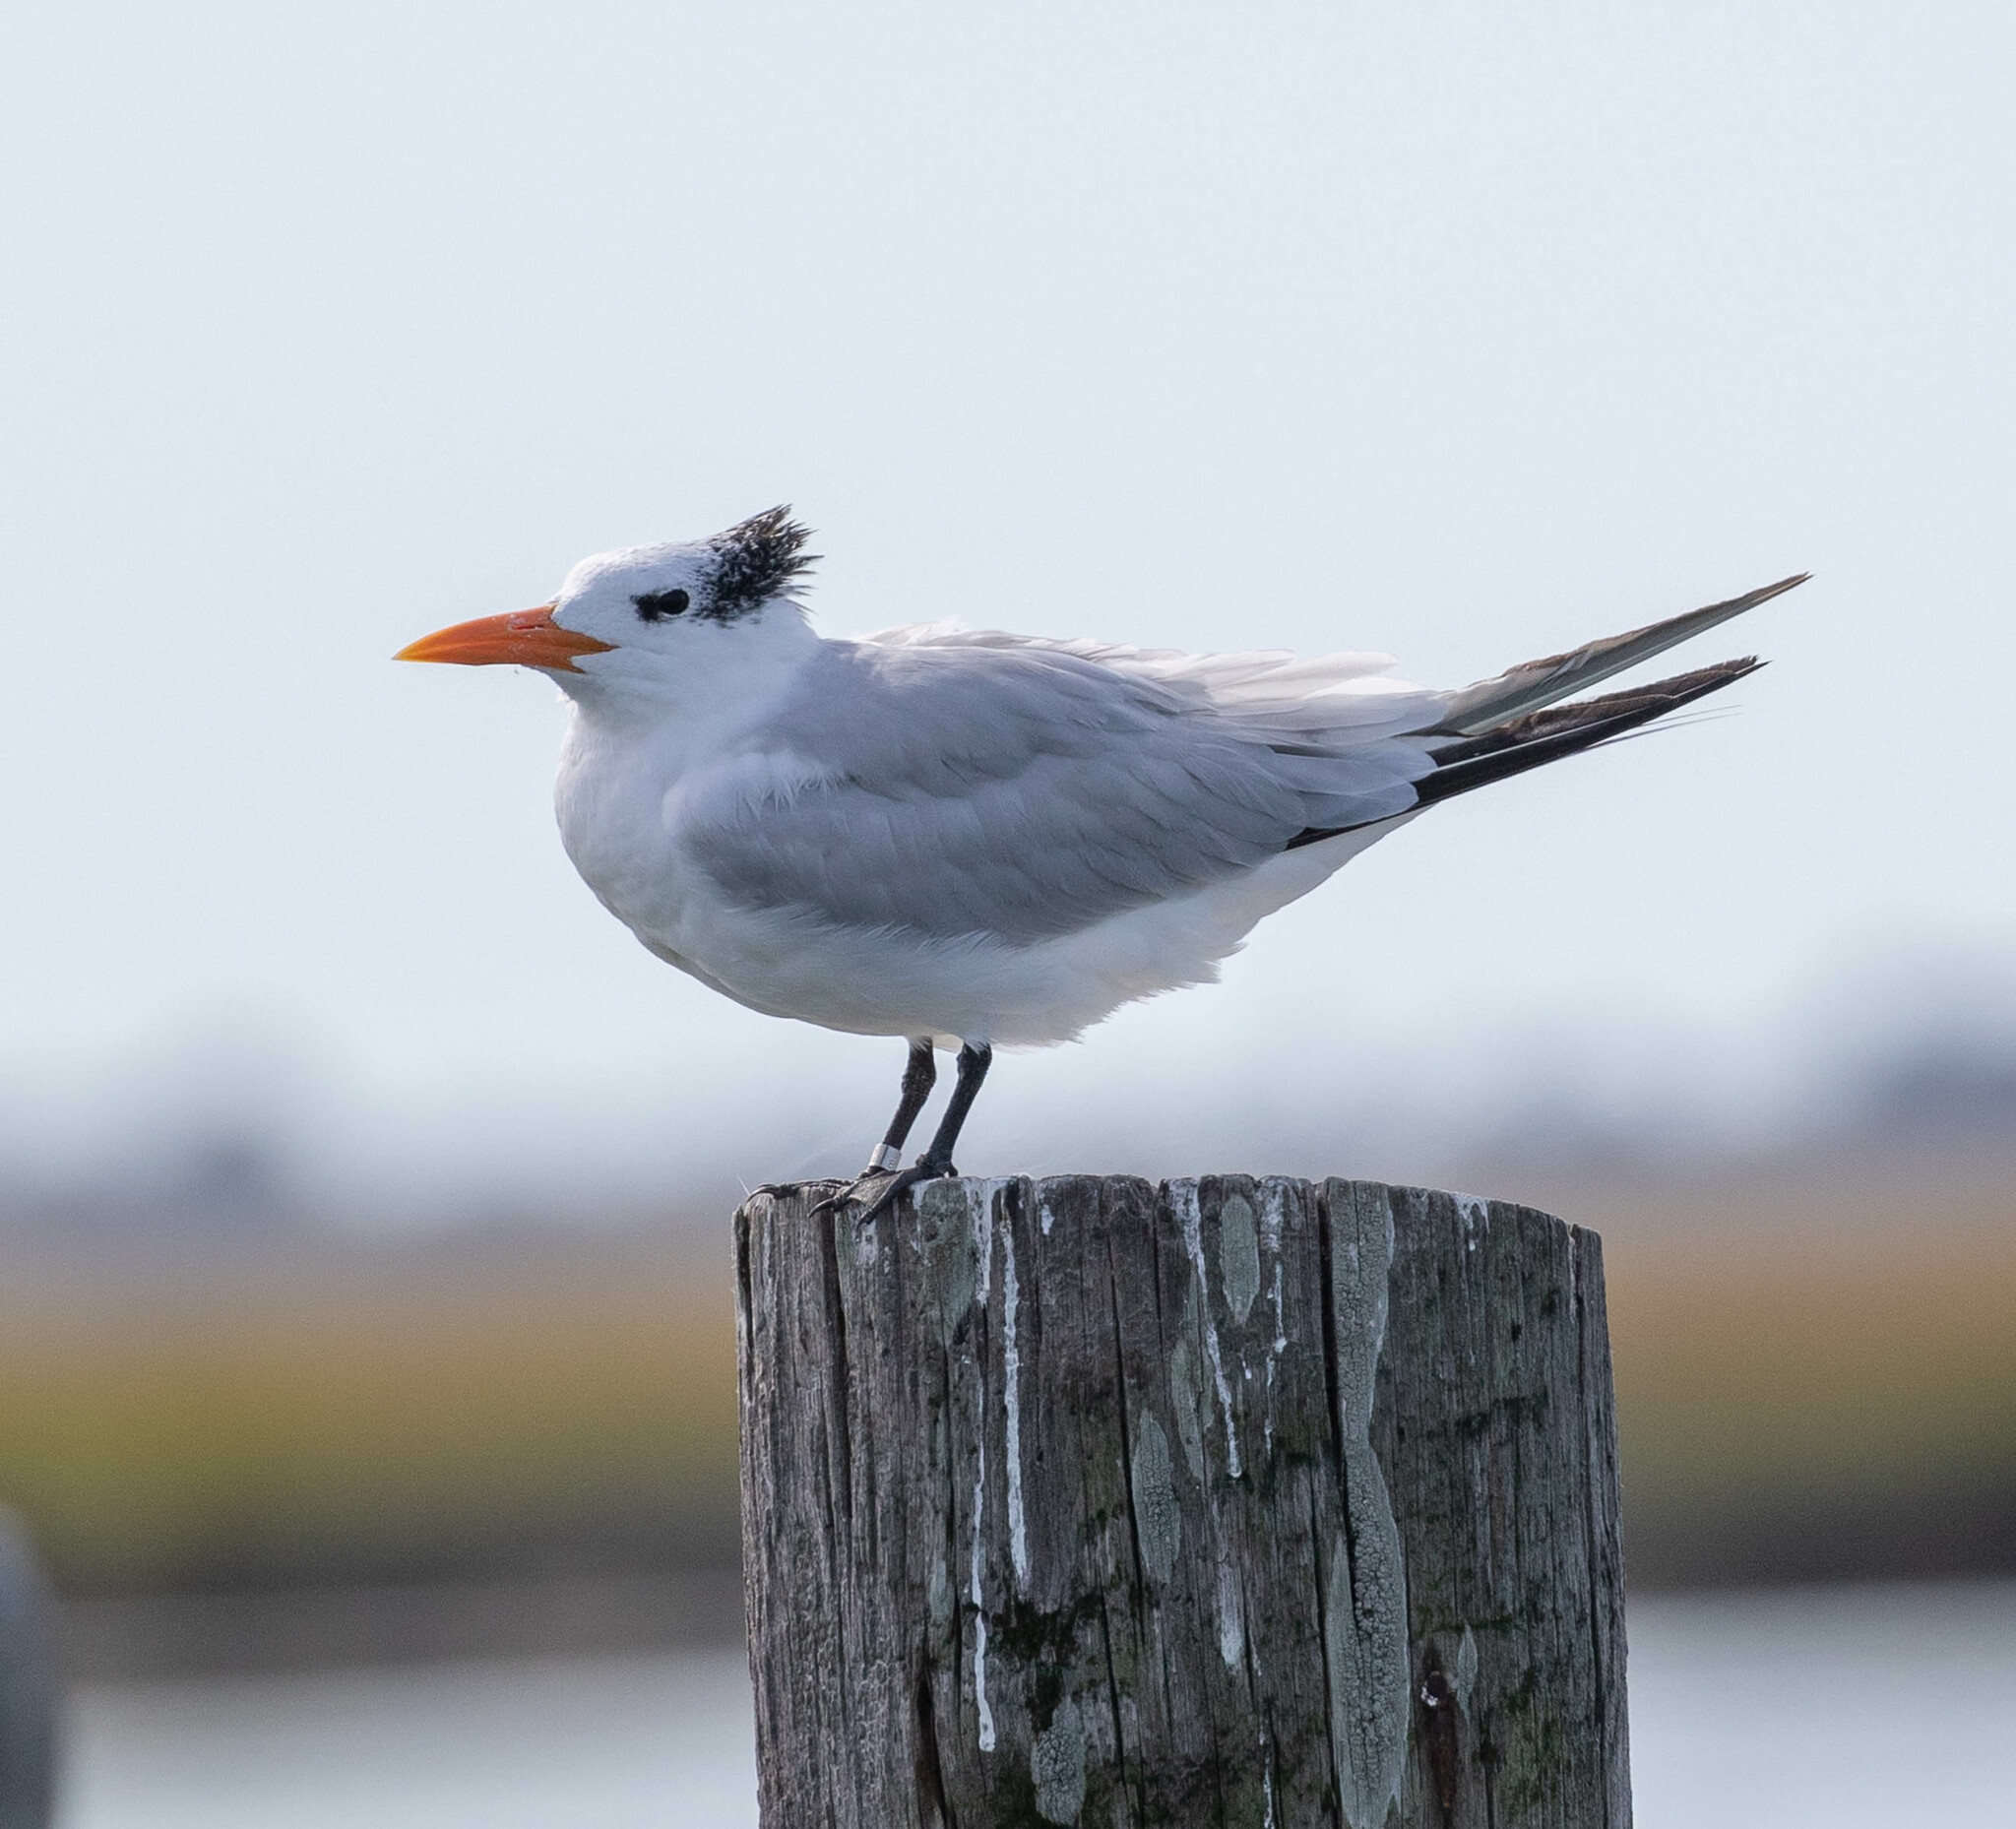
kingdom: Animalia
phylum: Chordata
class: Aves
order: Charadriiformes
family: Laridae
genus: Thalasseus
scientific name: Thalasseus maximus
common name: Royal tern
